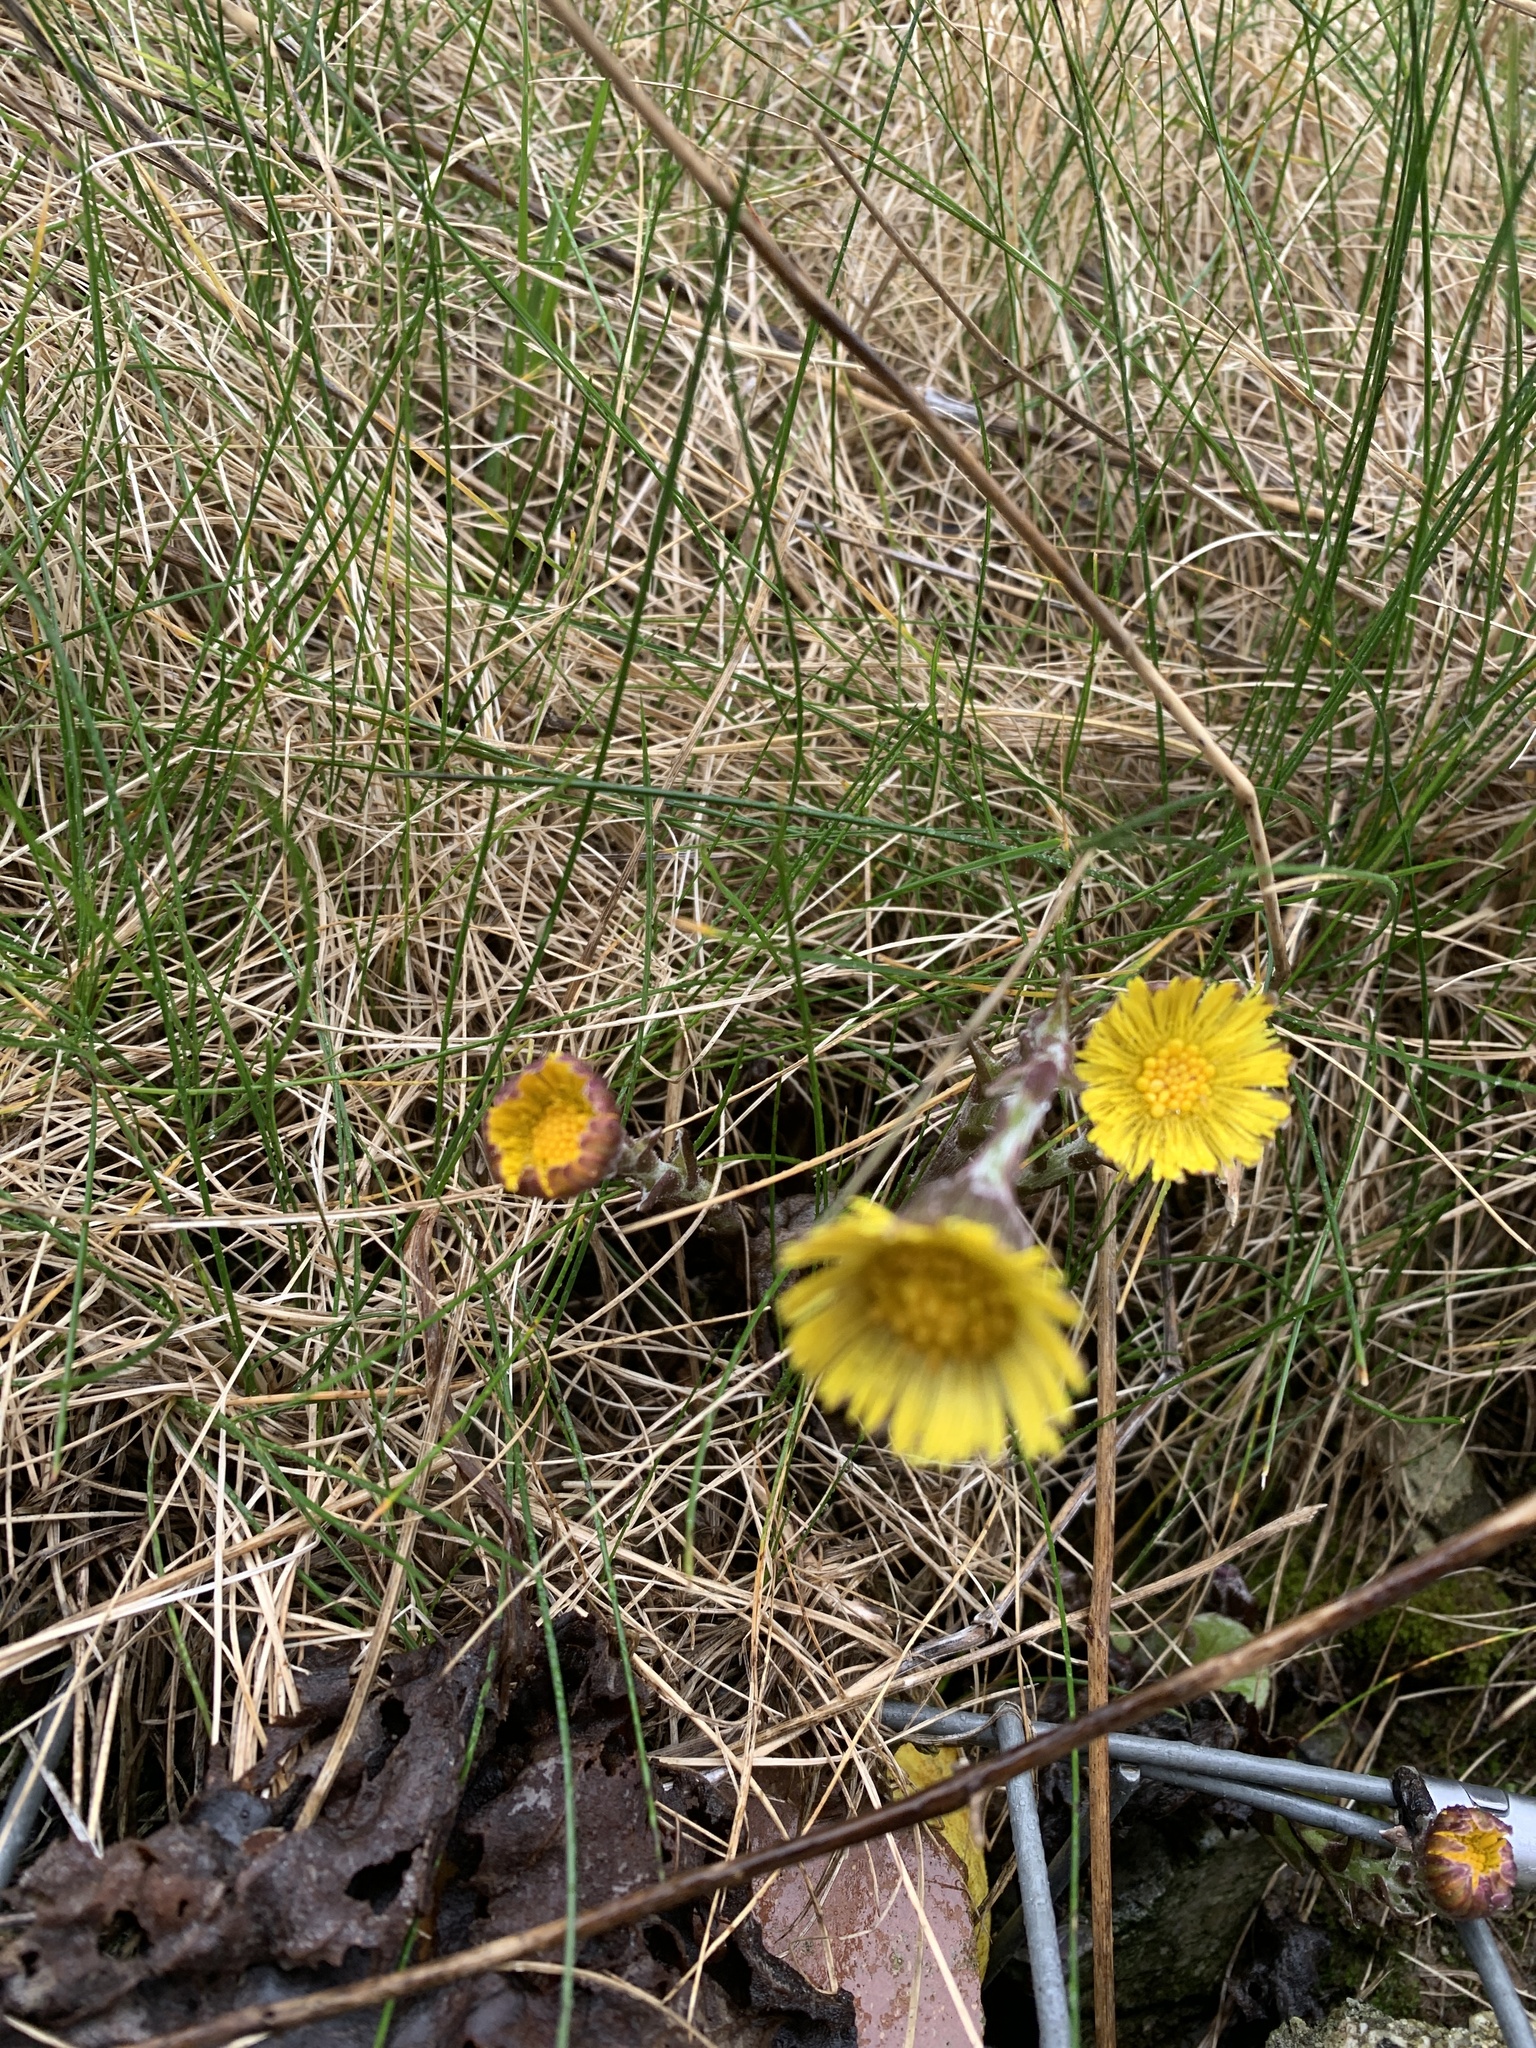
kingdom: Plantae
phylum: Tracheophyta
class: Magnoliopsida
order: Asterales
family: Asteraceae
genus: Tussilago
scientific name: Tussilago farfara
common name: Coltsfoot
